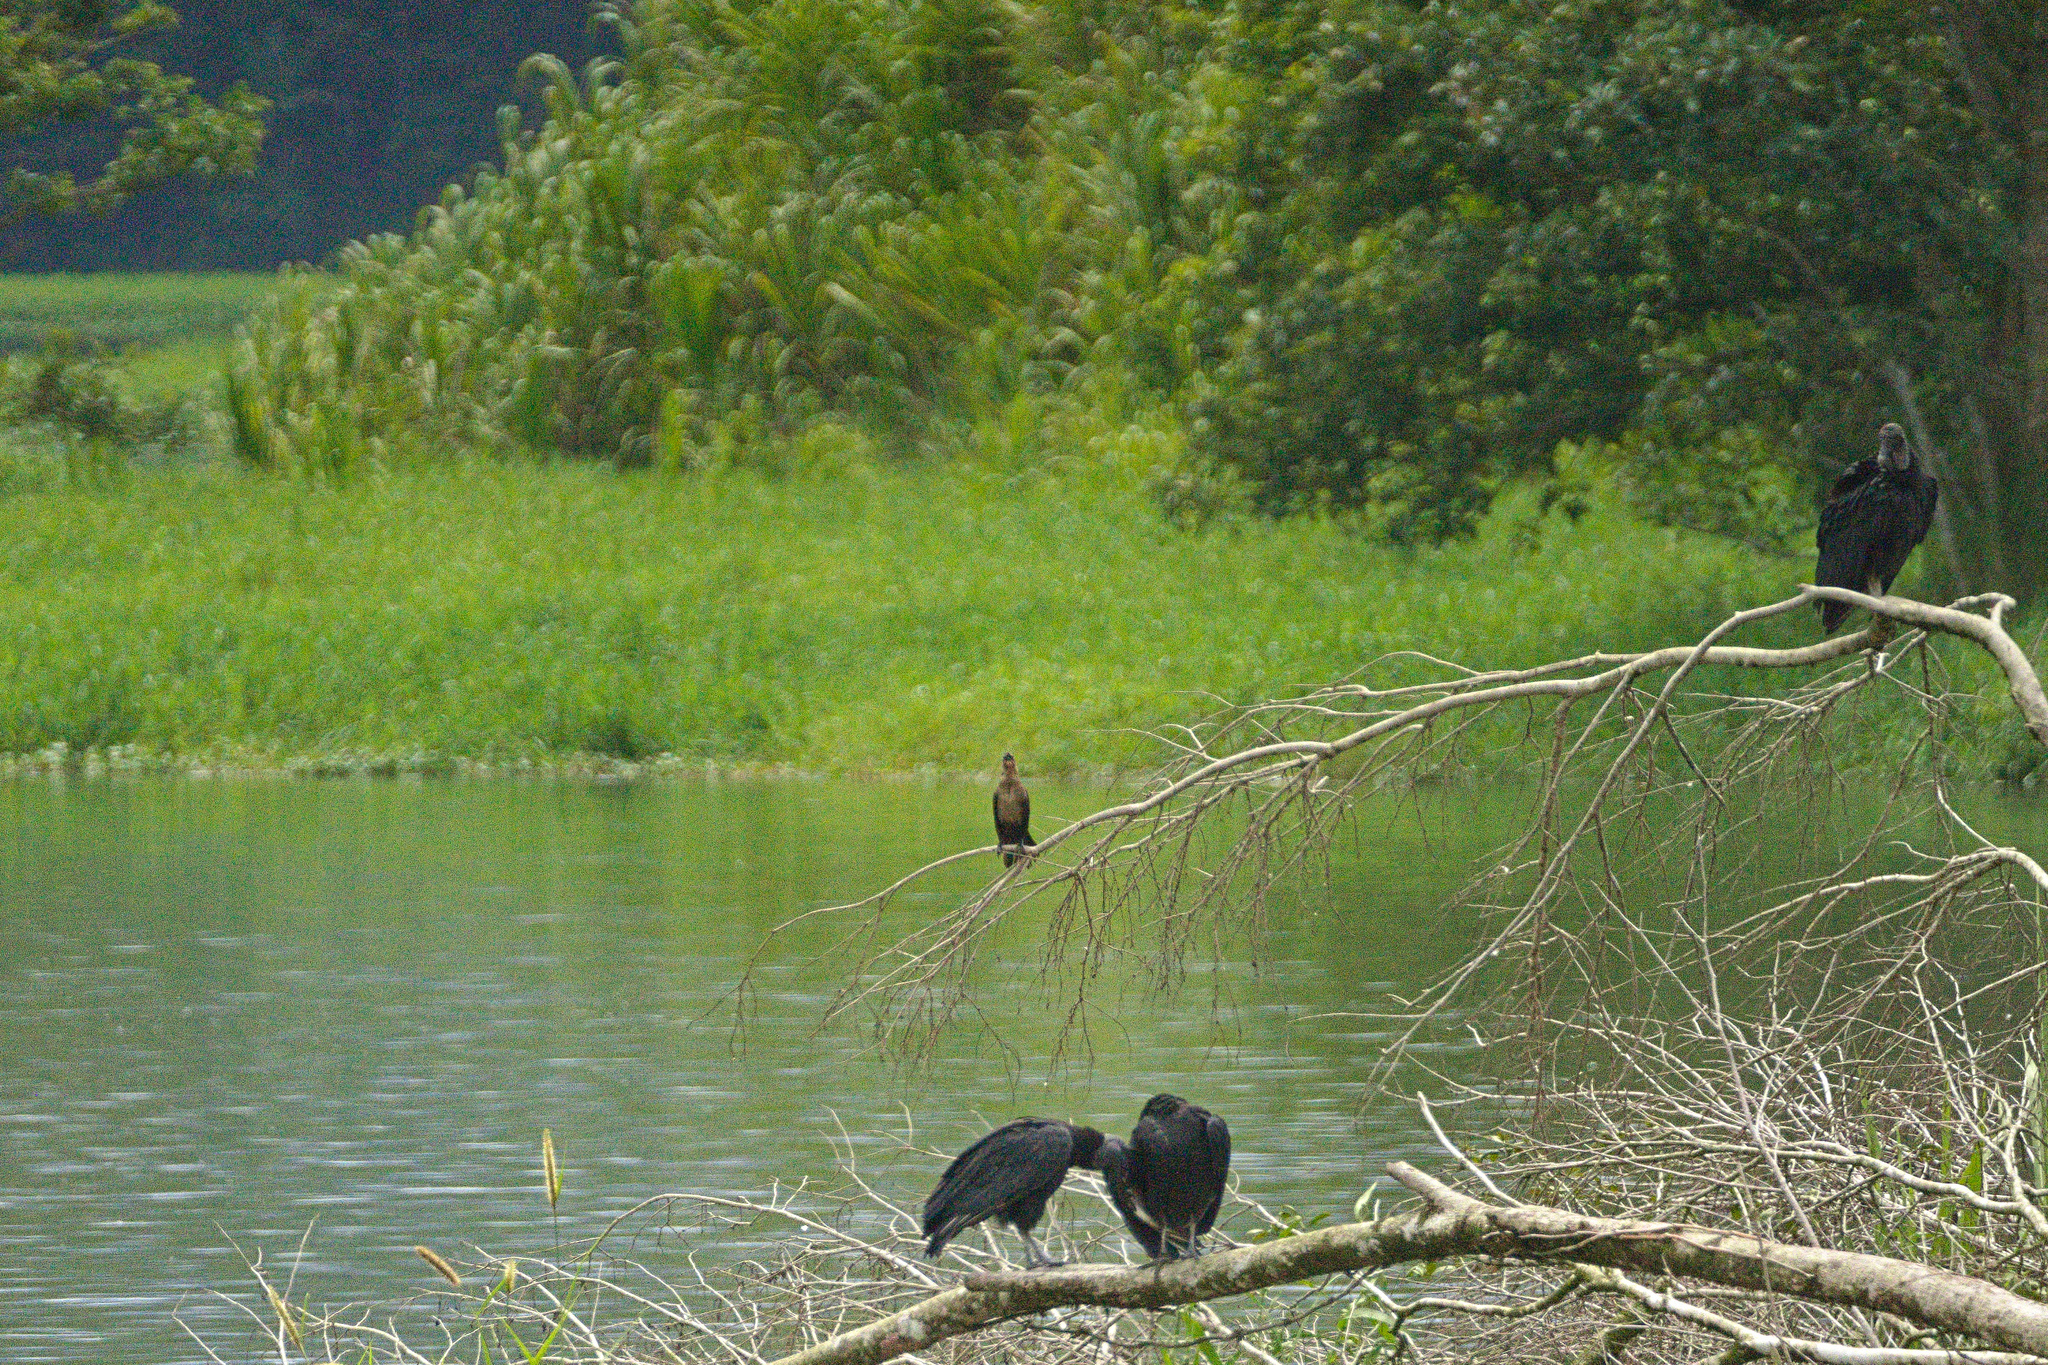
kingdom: Animalia
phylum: Chordata
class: Aves
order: Passeriformes
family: Icteridae
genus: Quiscalus
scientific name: Quiscalus mexicanus
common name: Great-tailed grackle
